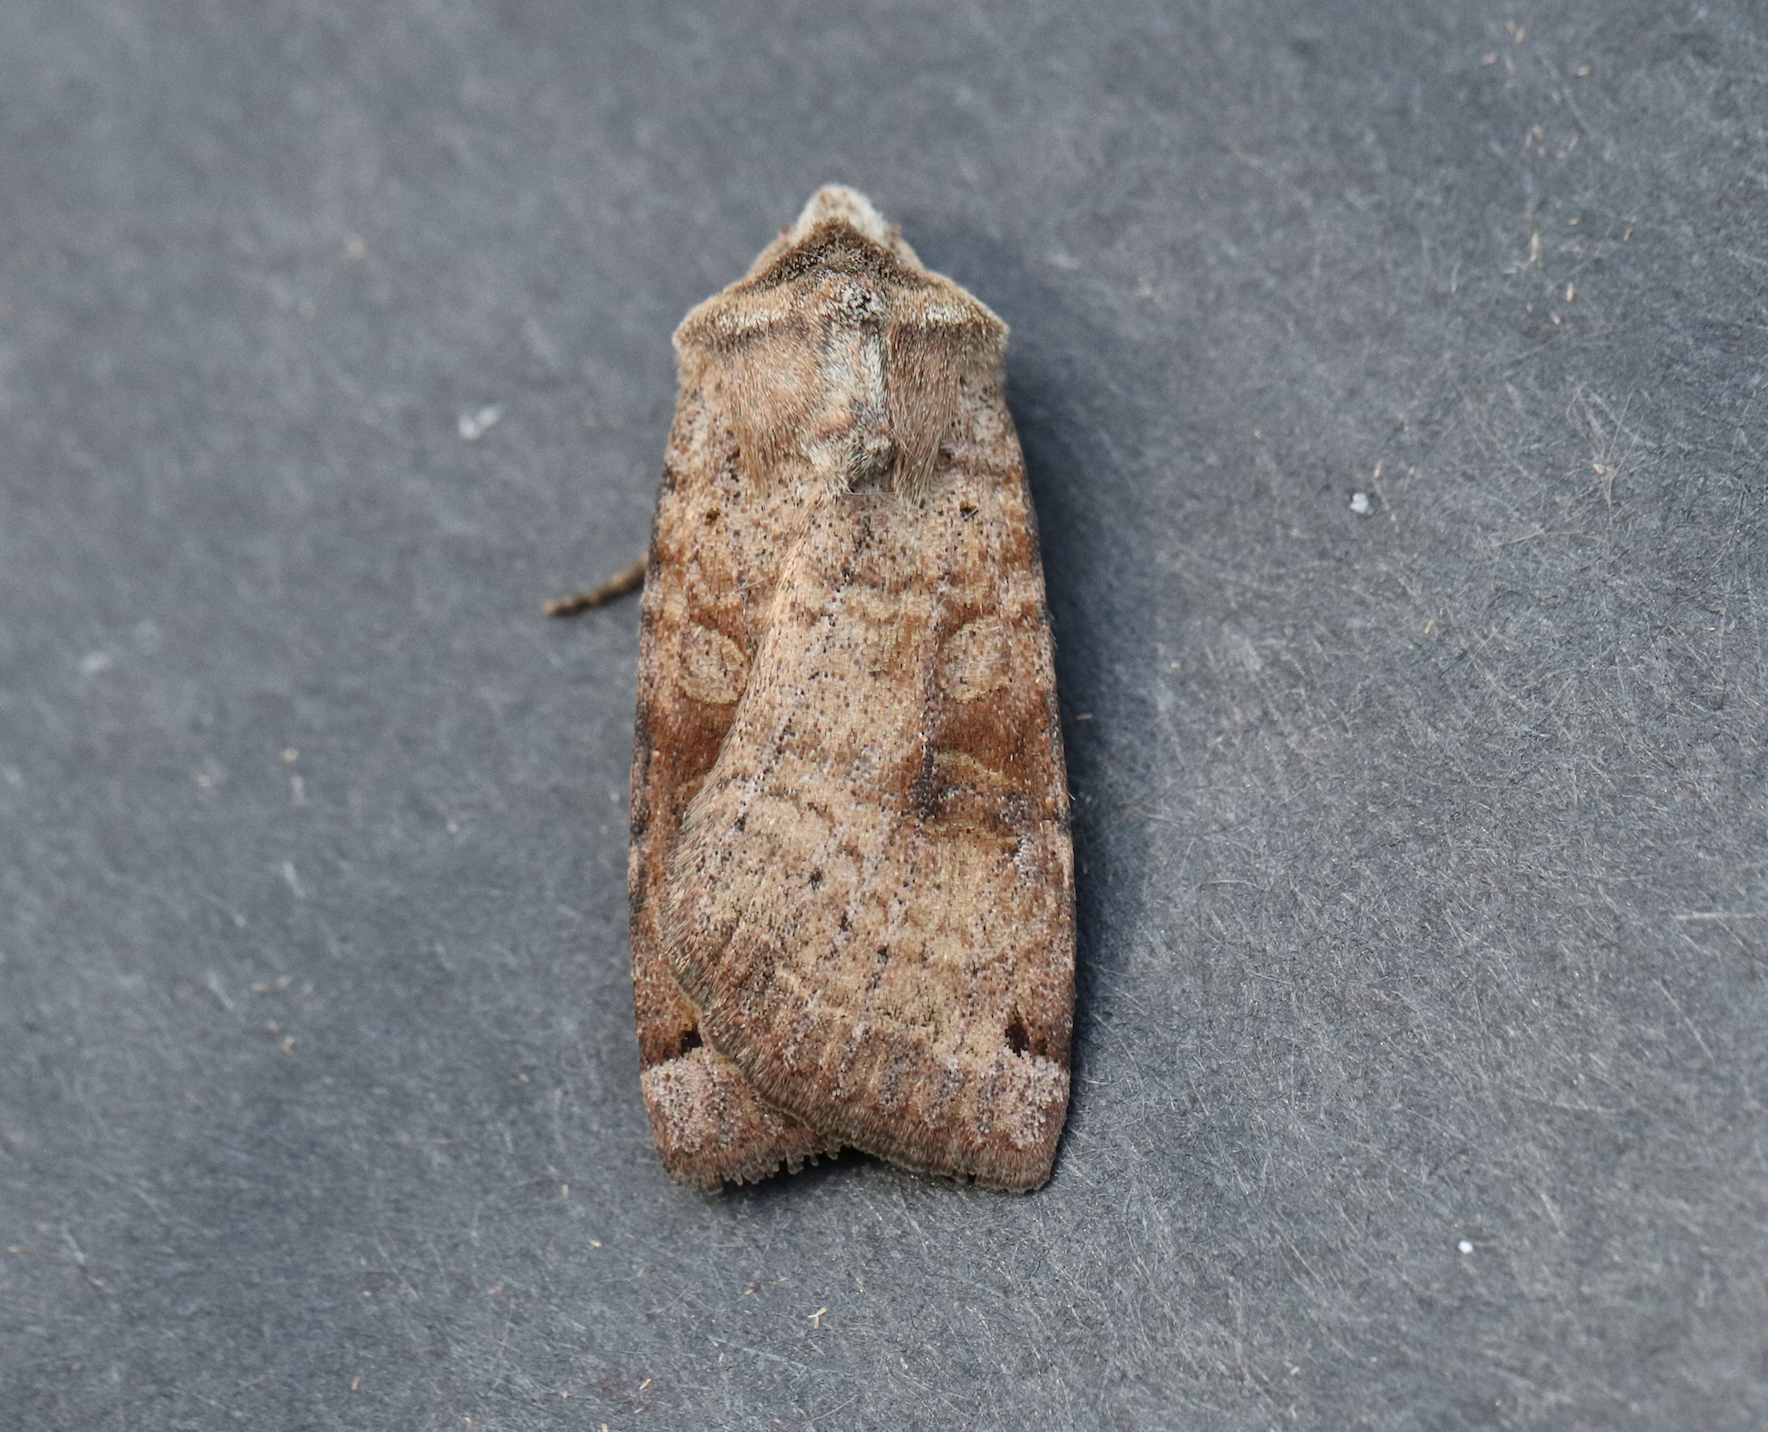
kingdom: Animalia
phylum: Arthropoda
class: Insecta
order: Lepidoptera
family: Noctuidae
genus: Xestia
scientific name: Xestia smithii
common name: Smith's dart
